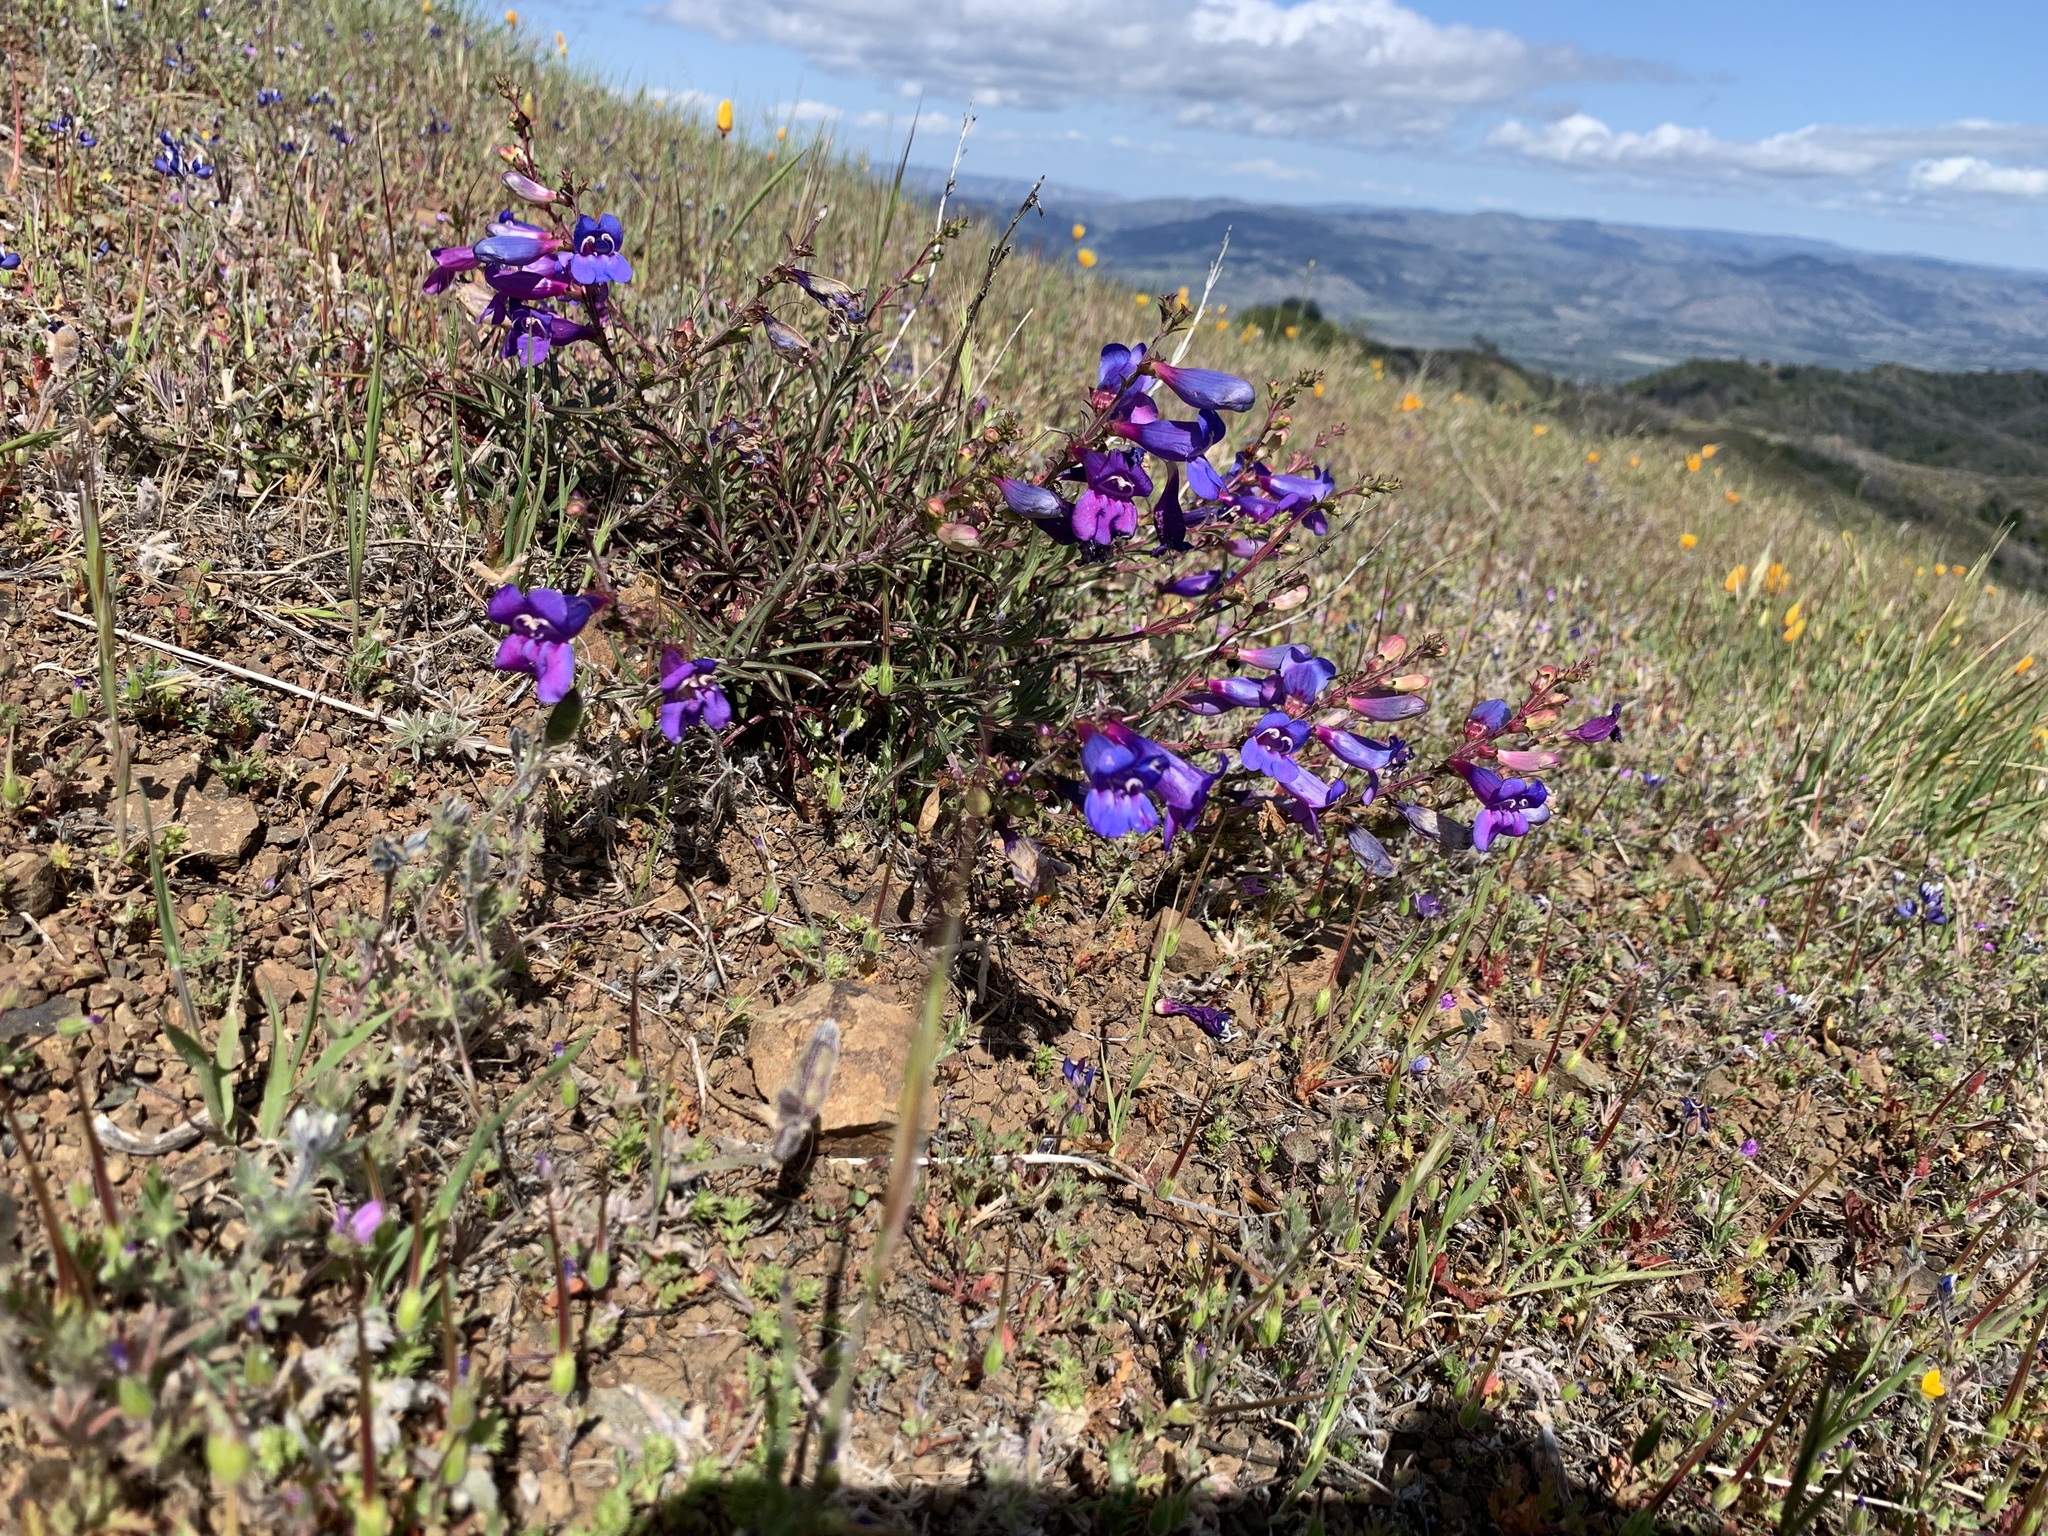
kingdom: Plantae
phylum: Tracheophyta
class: Magnoliopsida
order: Lamiales
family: Plantaginaceae
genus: Penstemon
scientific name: Penstemon heterophyllus
